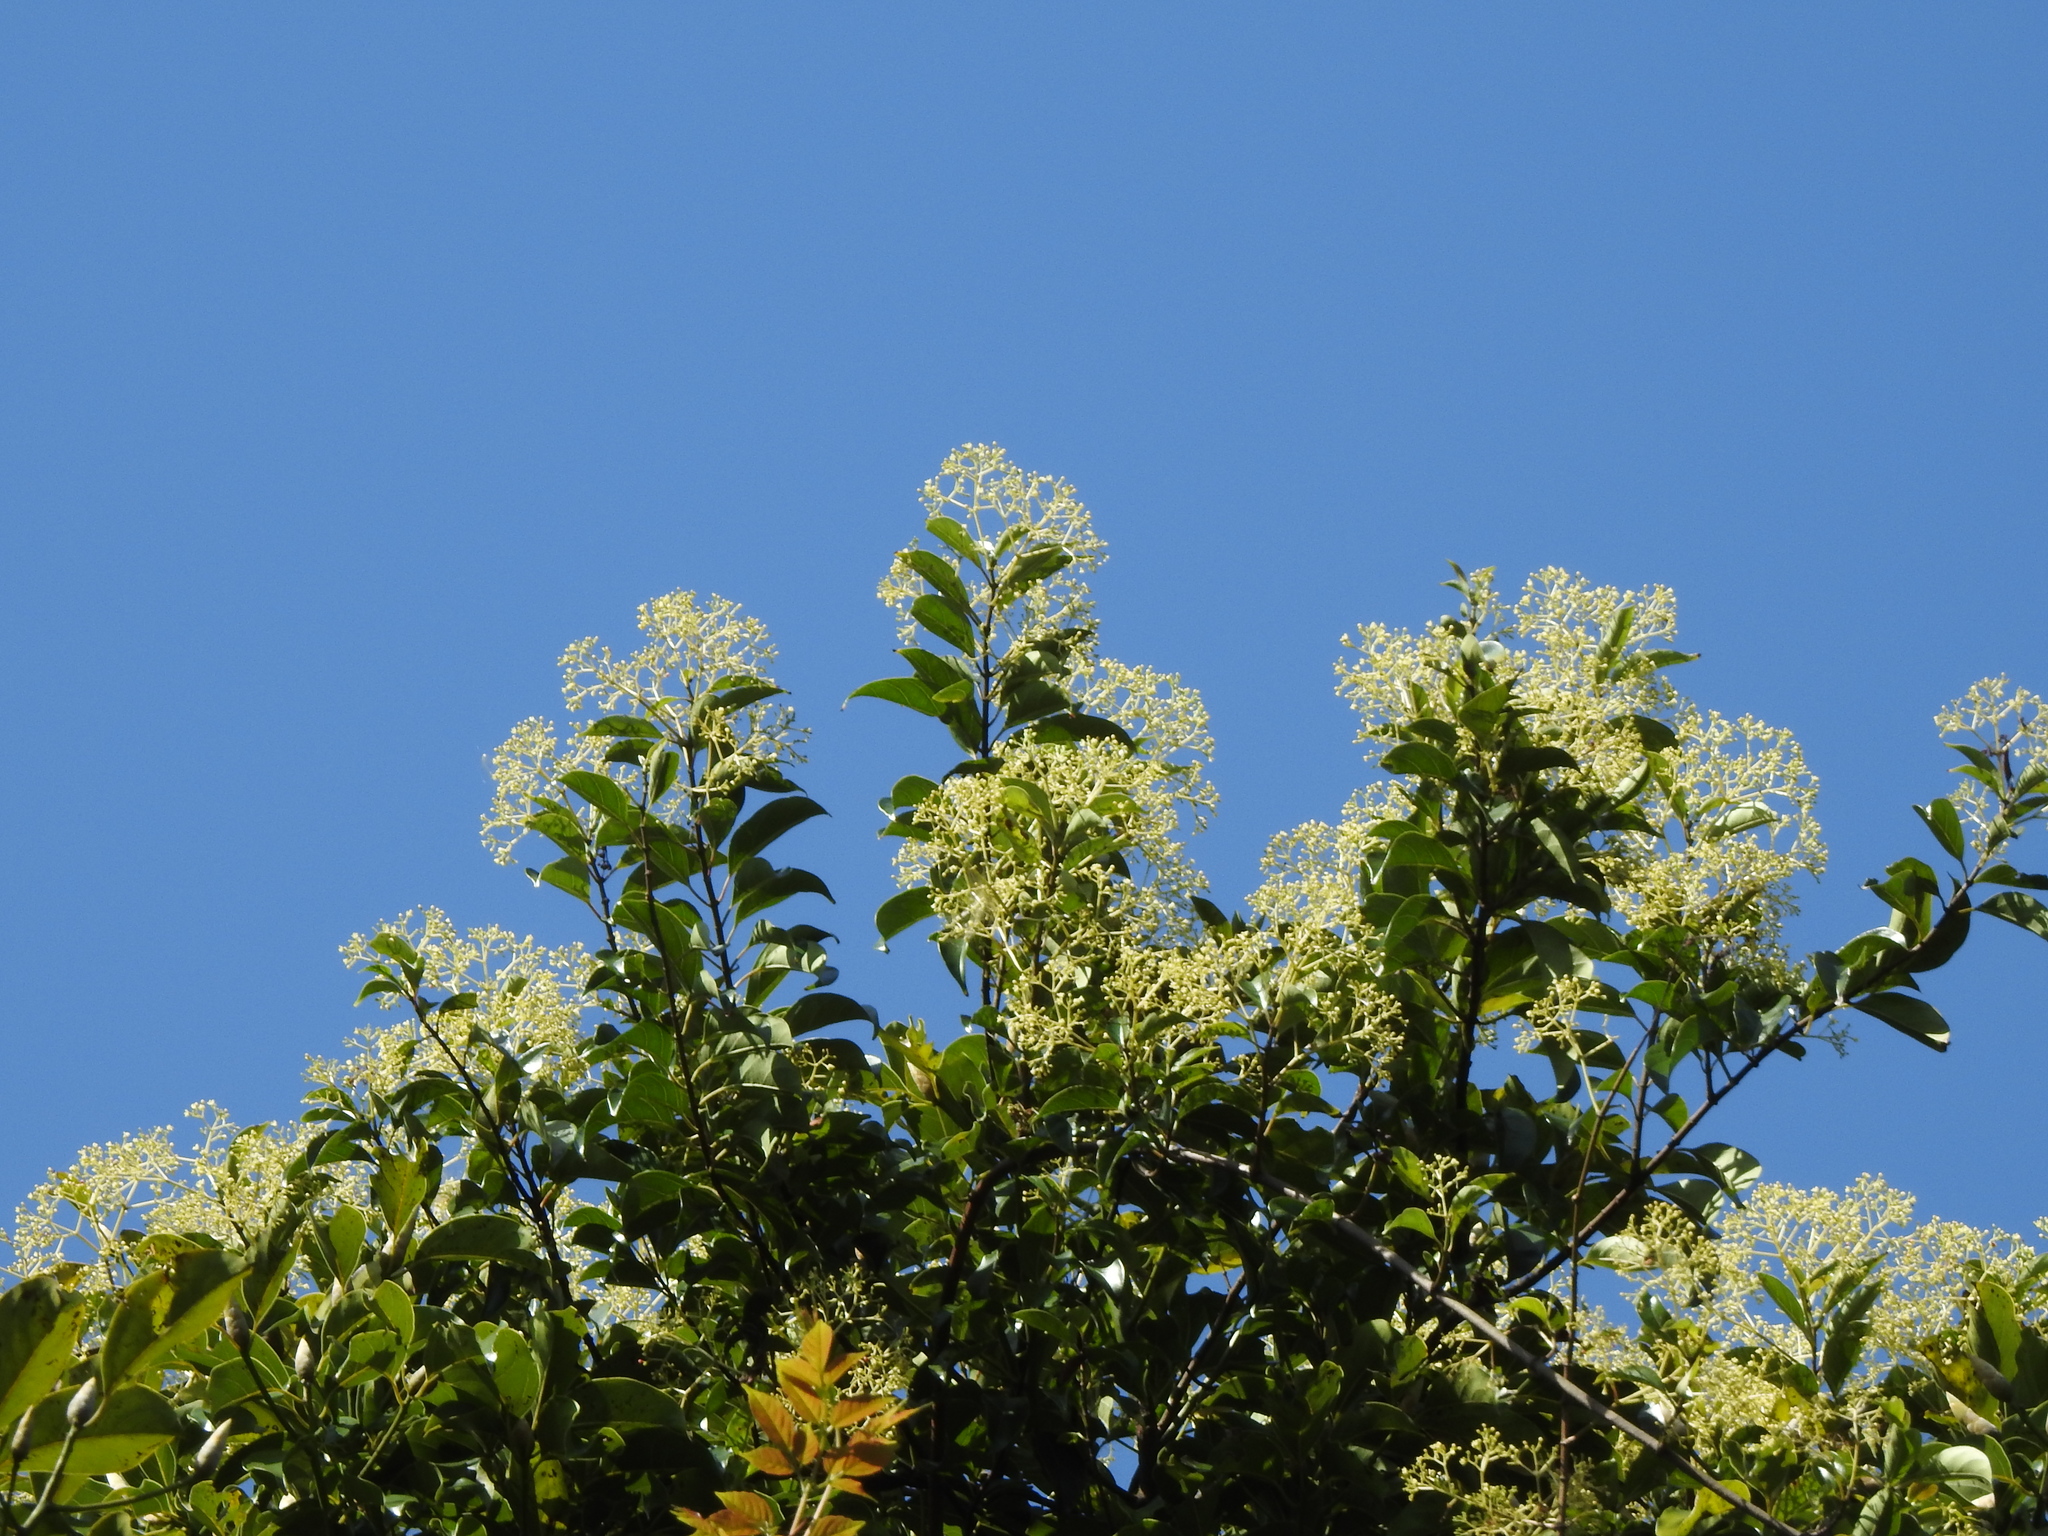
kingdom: Plantae
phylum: Tracheophyta
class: Magnoliopsida
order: Gentianales
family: Apocynaceae
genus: Urceola
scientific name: Urceola micrantha
